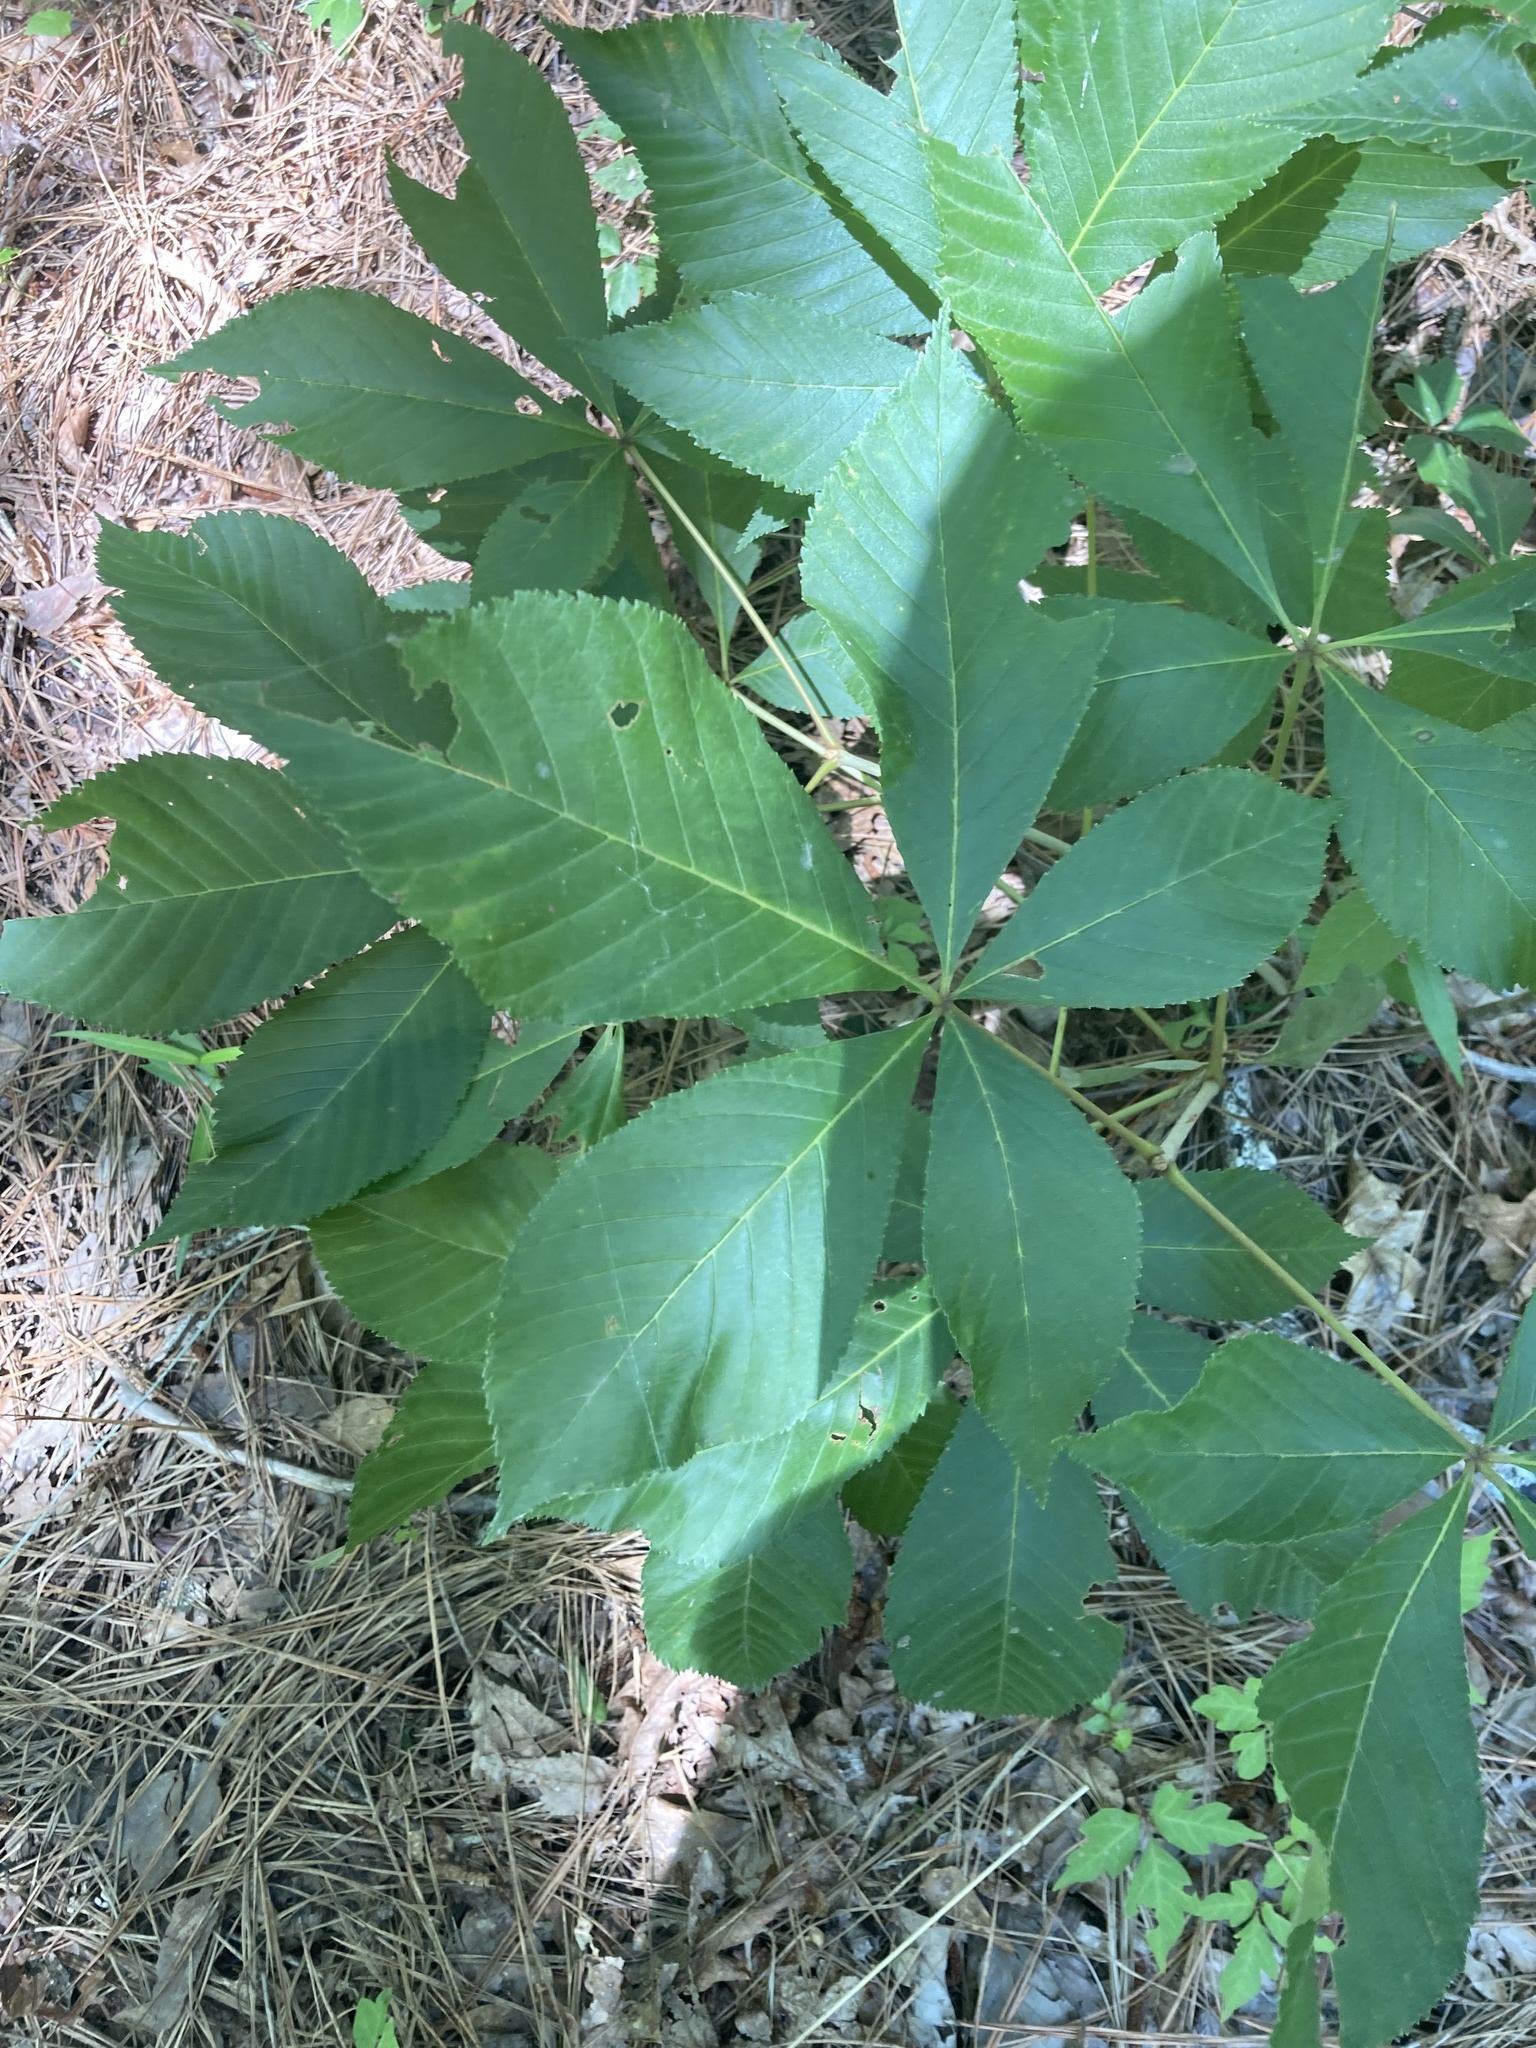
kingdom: Plantae
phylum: Tracheophyta
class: Magnoliopsida
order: Sapindales
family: Sapindaceae
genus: Aesculus
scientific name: Aesculus pavia
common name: Red buckeye
